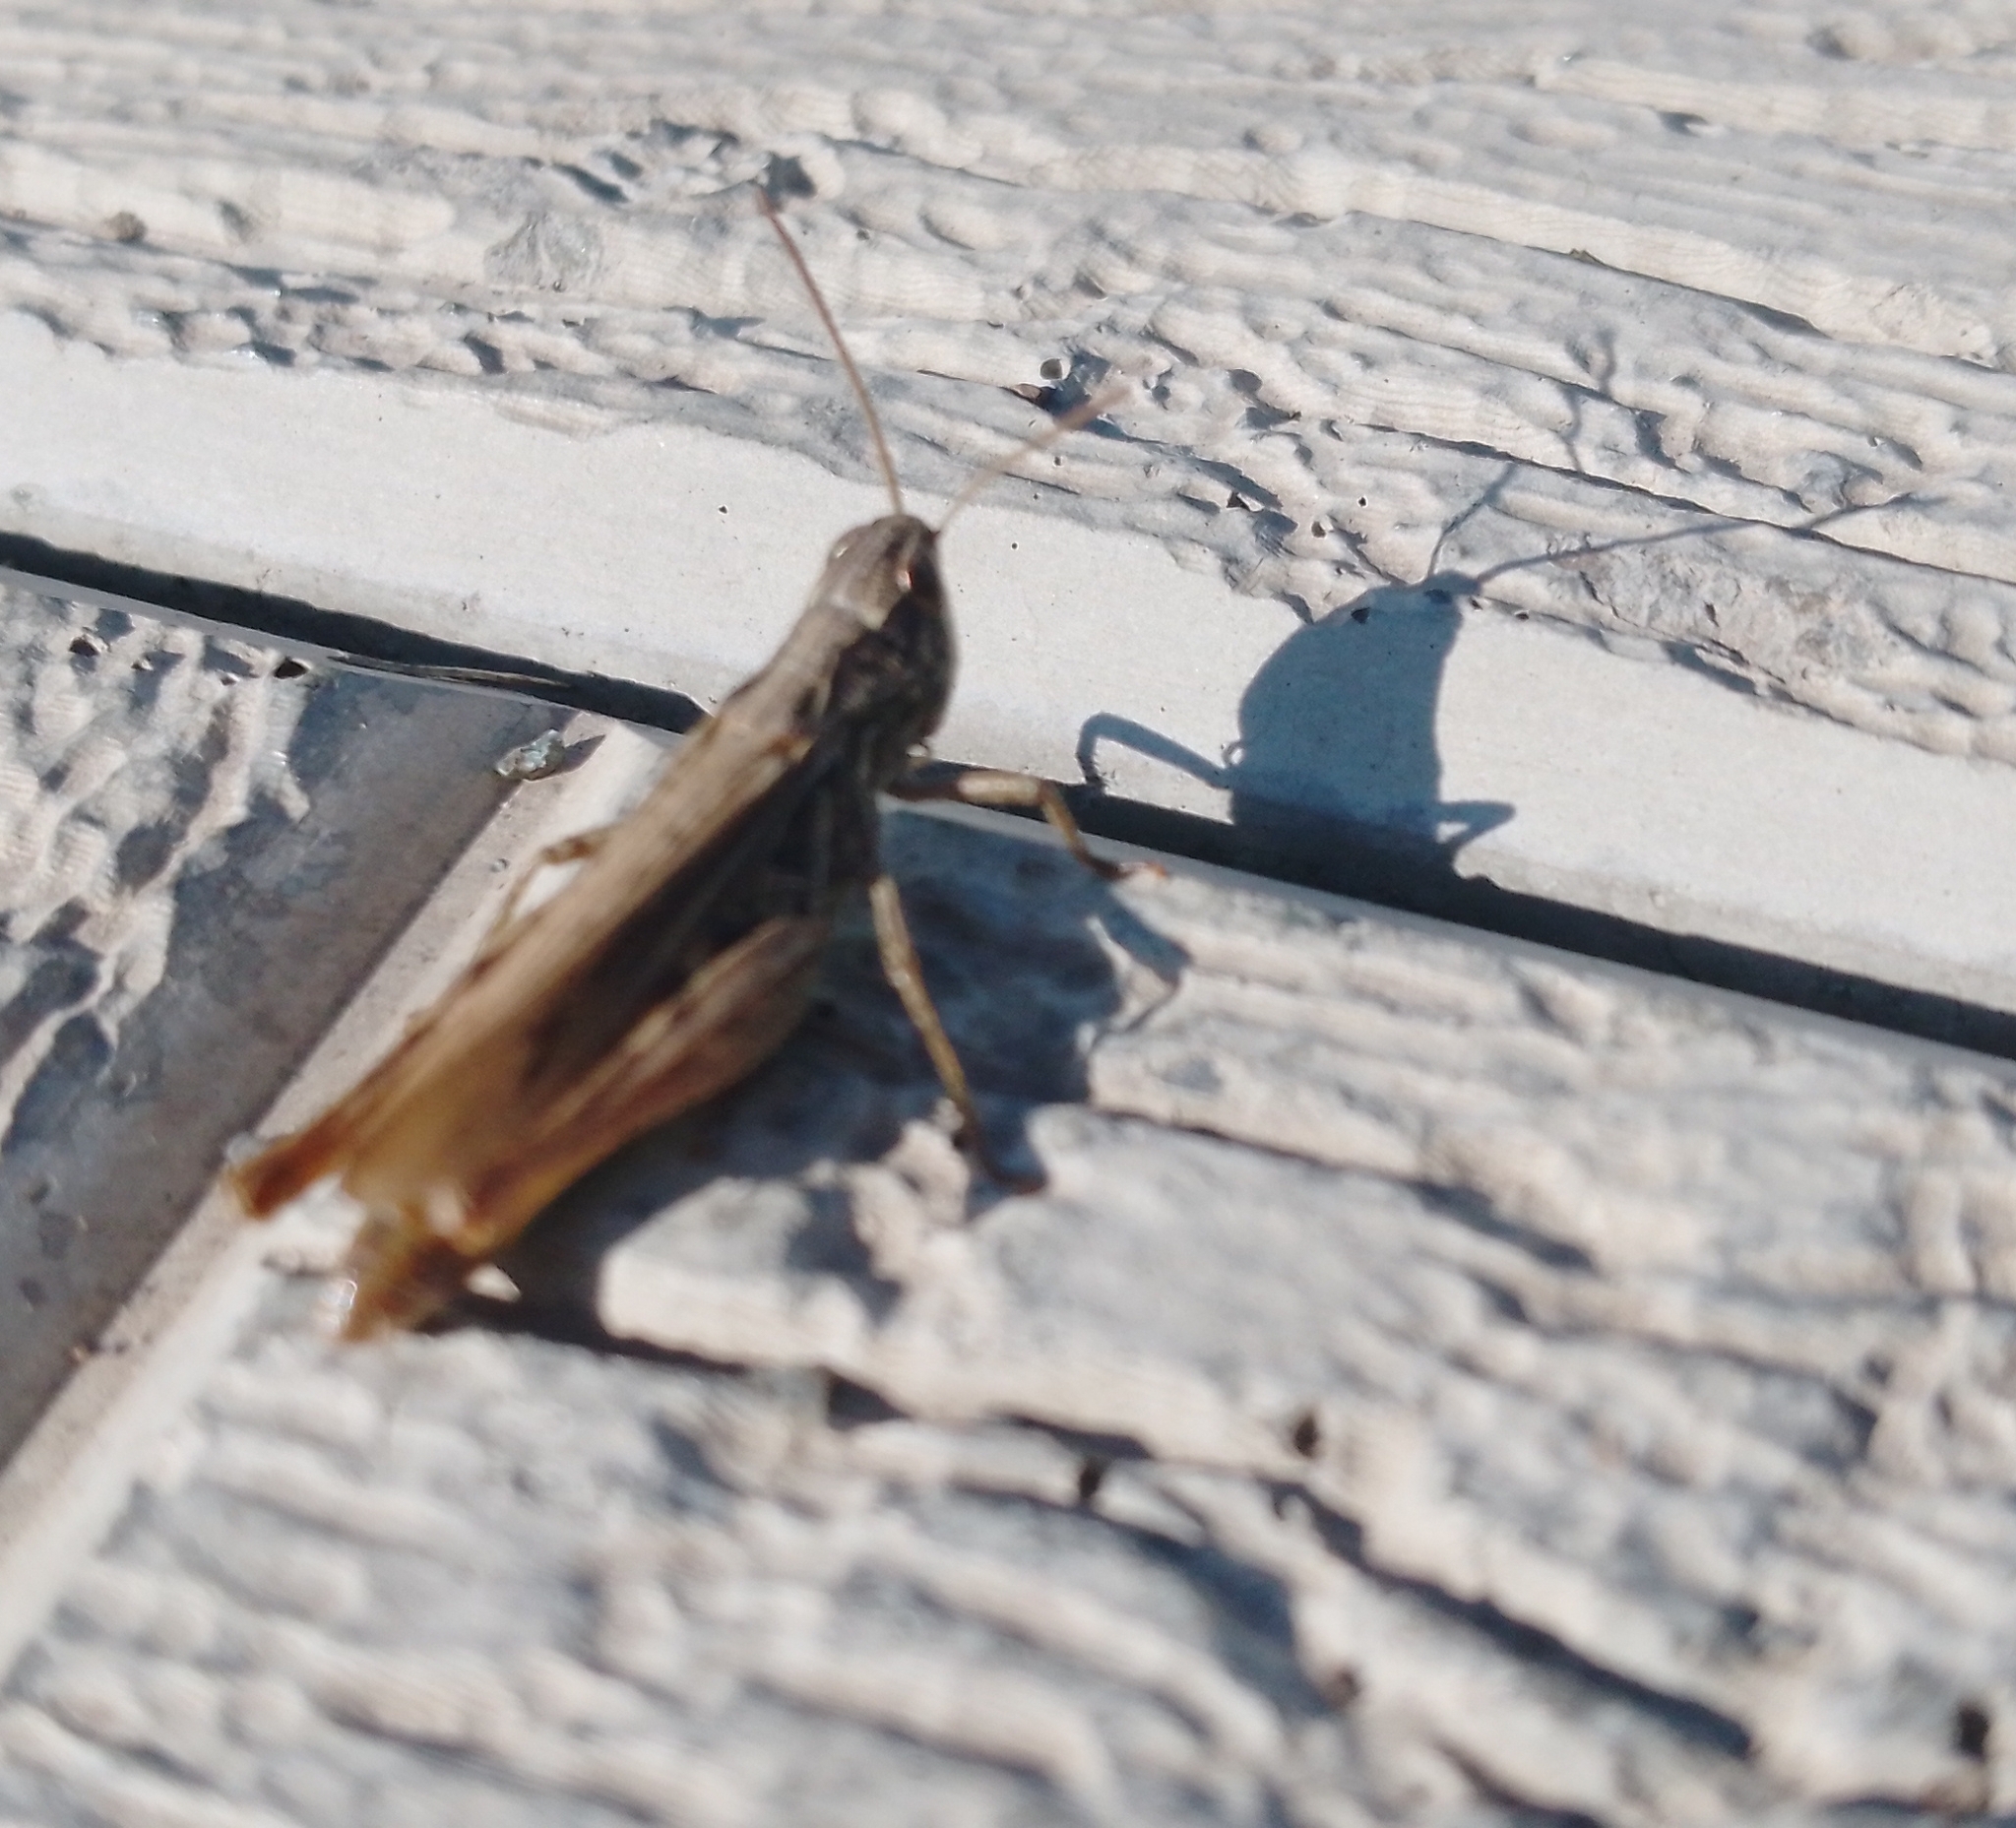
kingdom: Animalia
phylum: Arthropoda
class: Insecta
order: Orthoptera
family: Acrididae
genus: Chorthippus
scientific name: Chorthippus apricarius
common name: Upland field grasshopper
